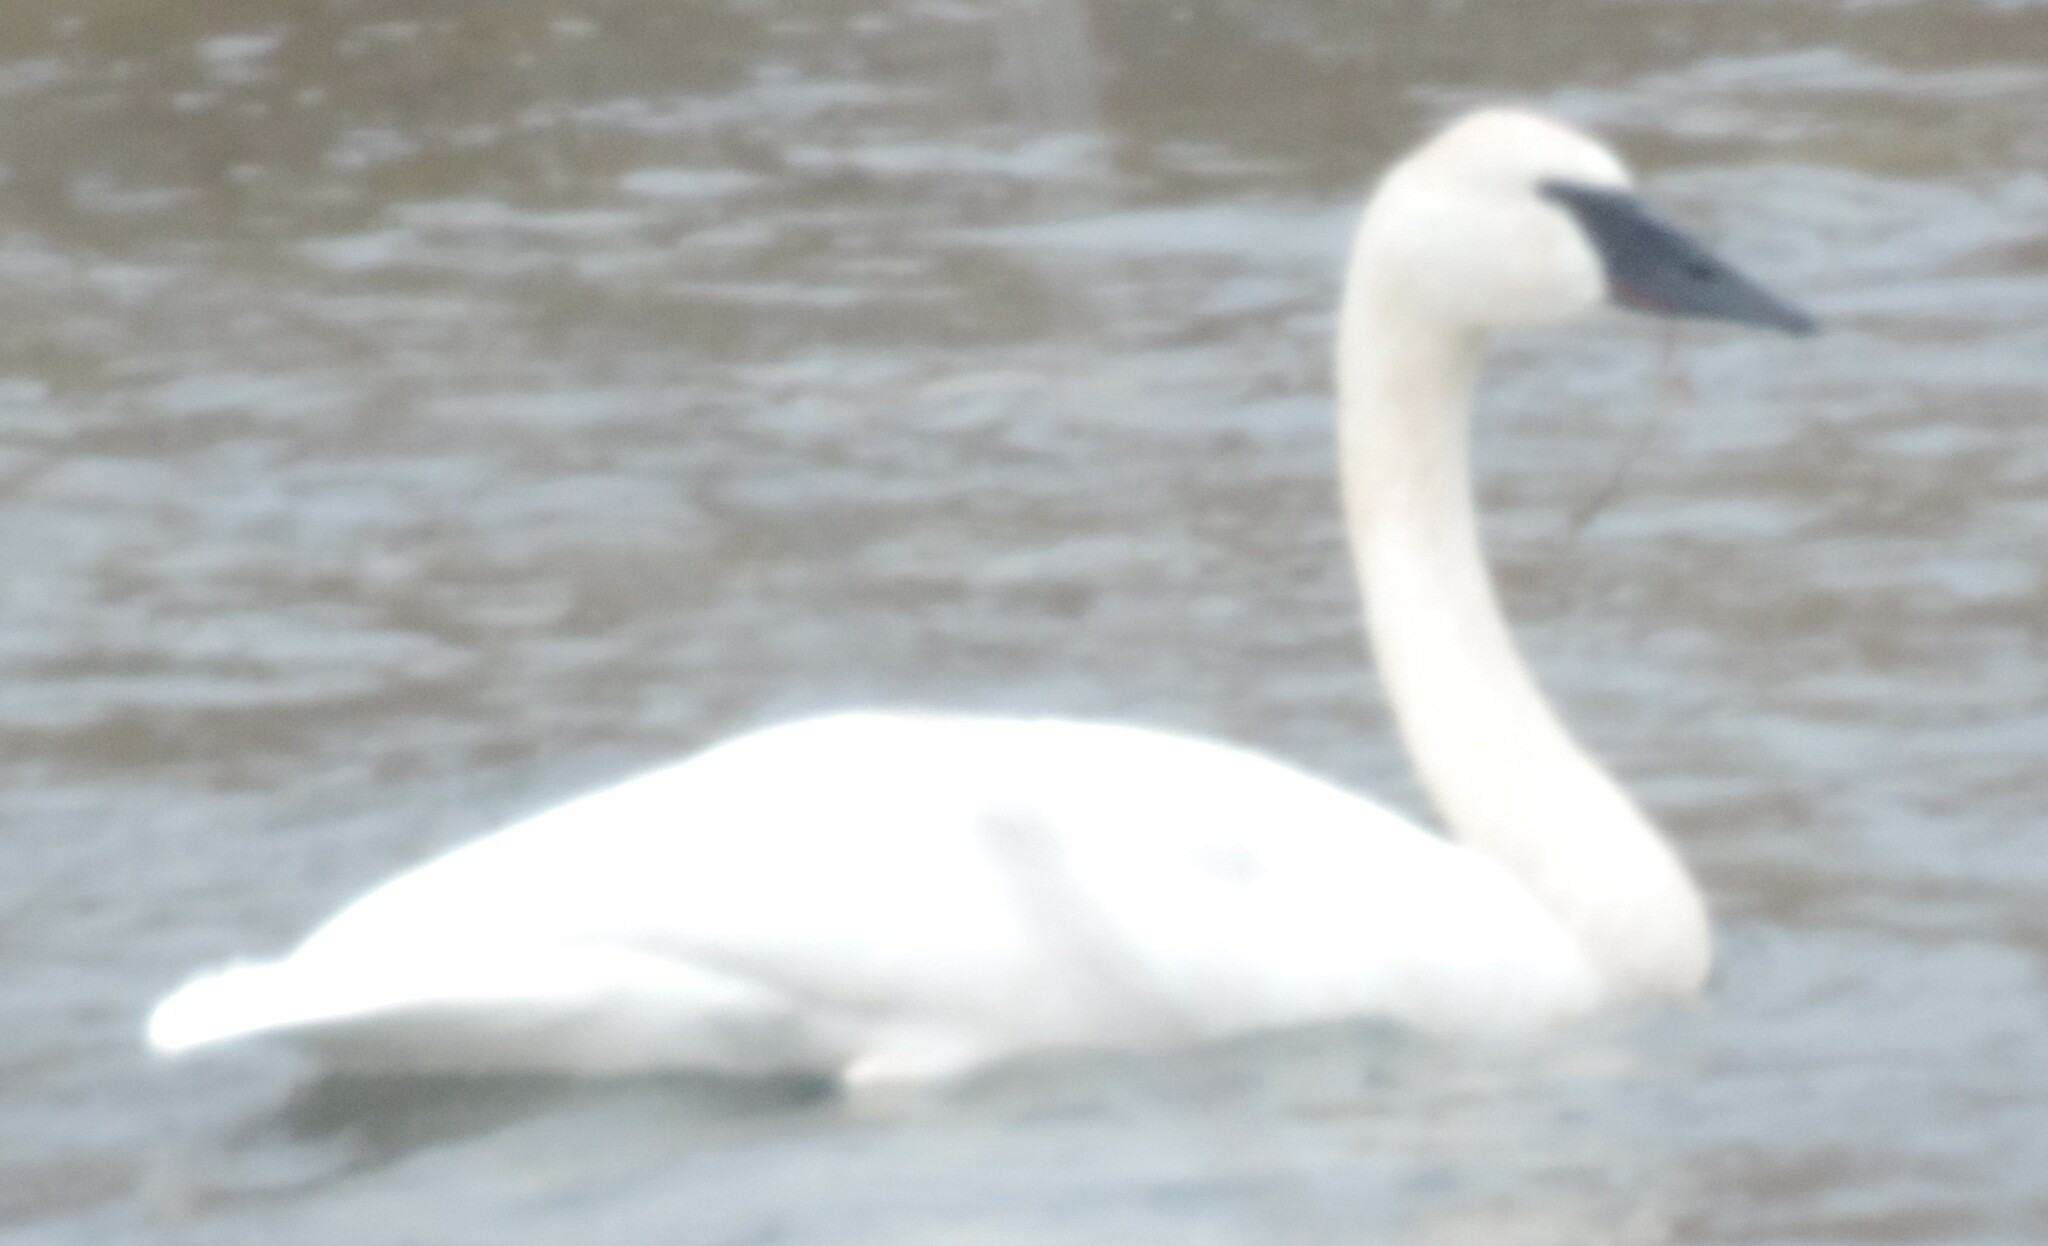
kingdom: Animalia
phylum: Chordata
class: Aves
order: Anseriformes
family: Anatidae
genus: Cygnus
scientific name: Cygnus buccinator
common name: Trumpeter swan
